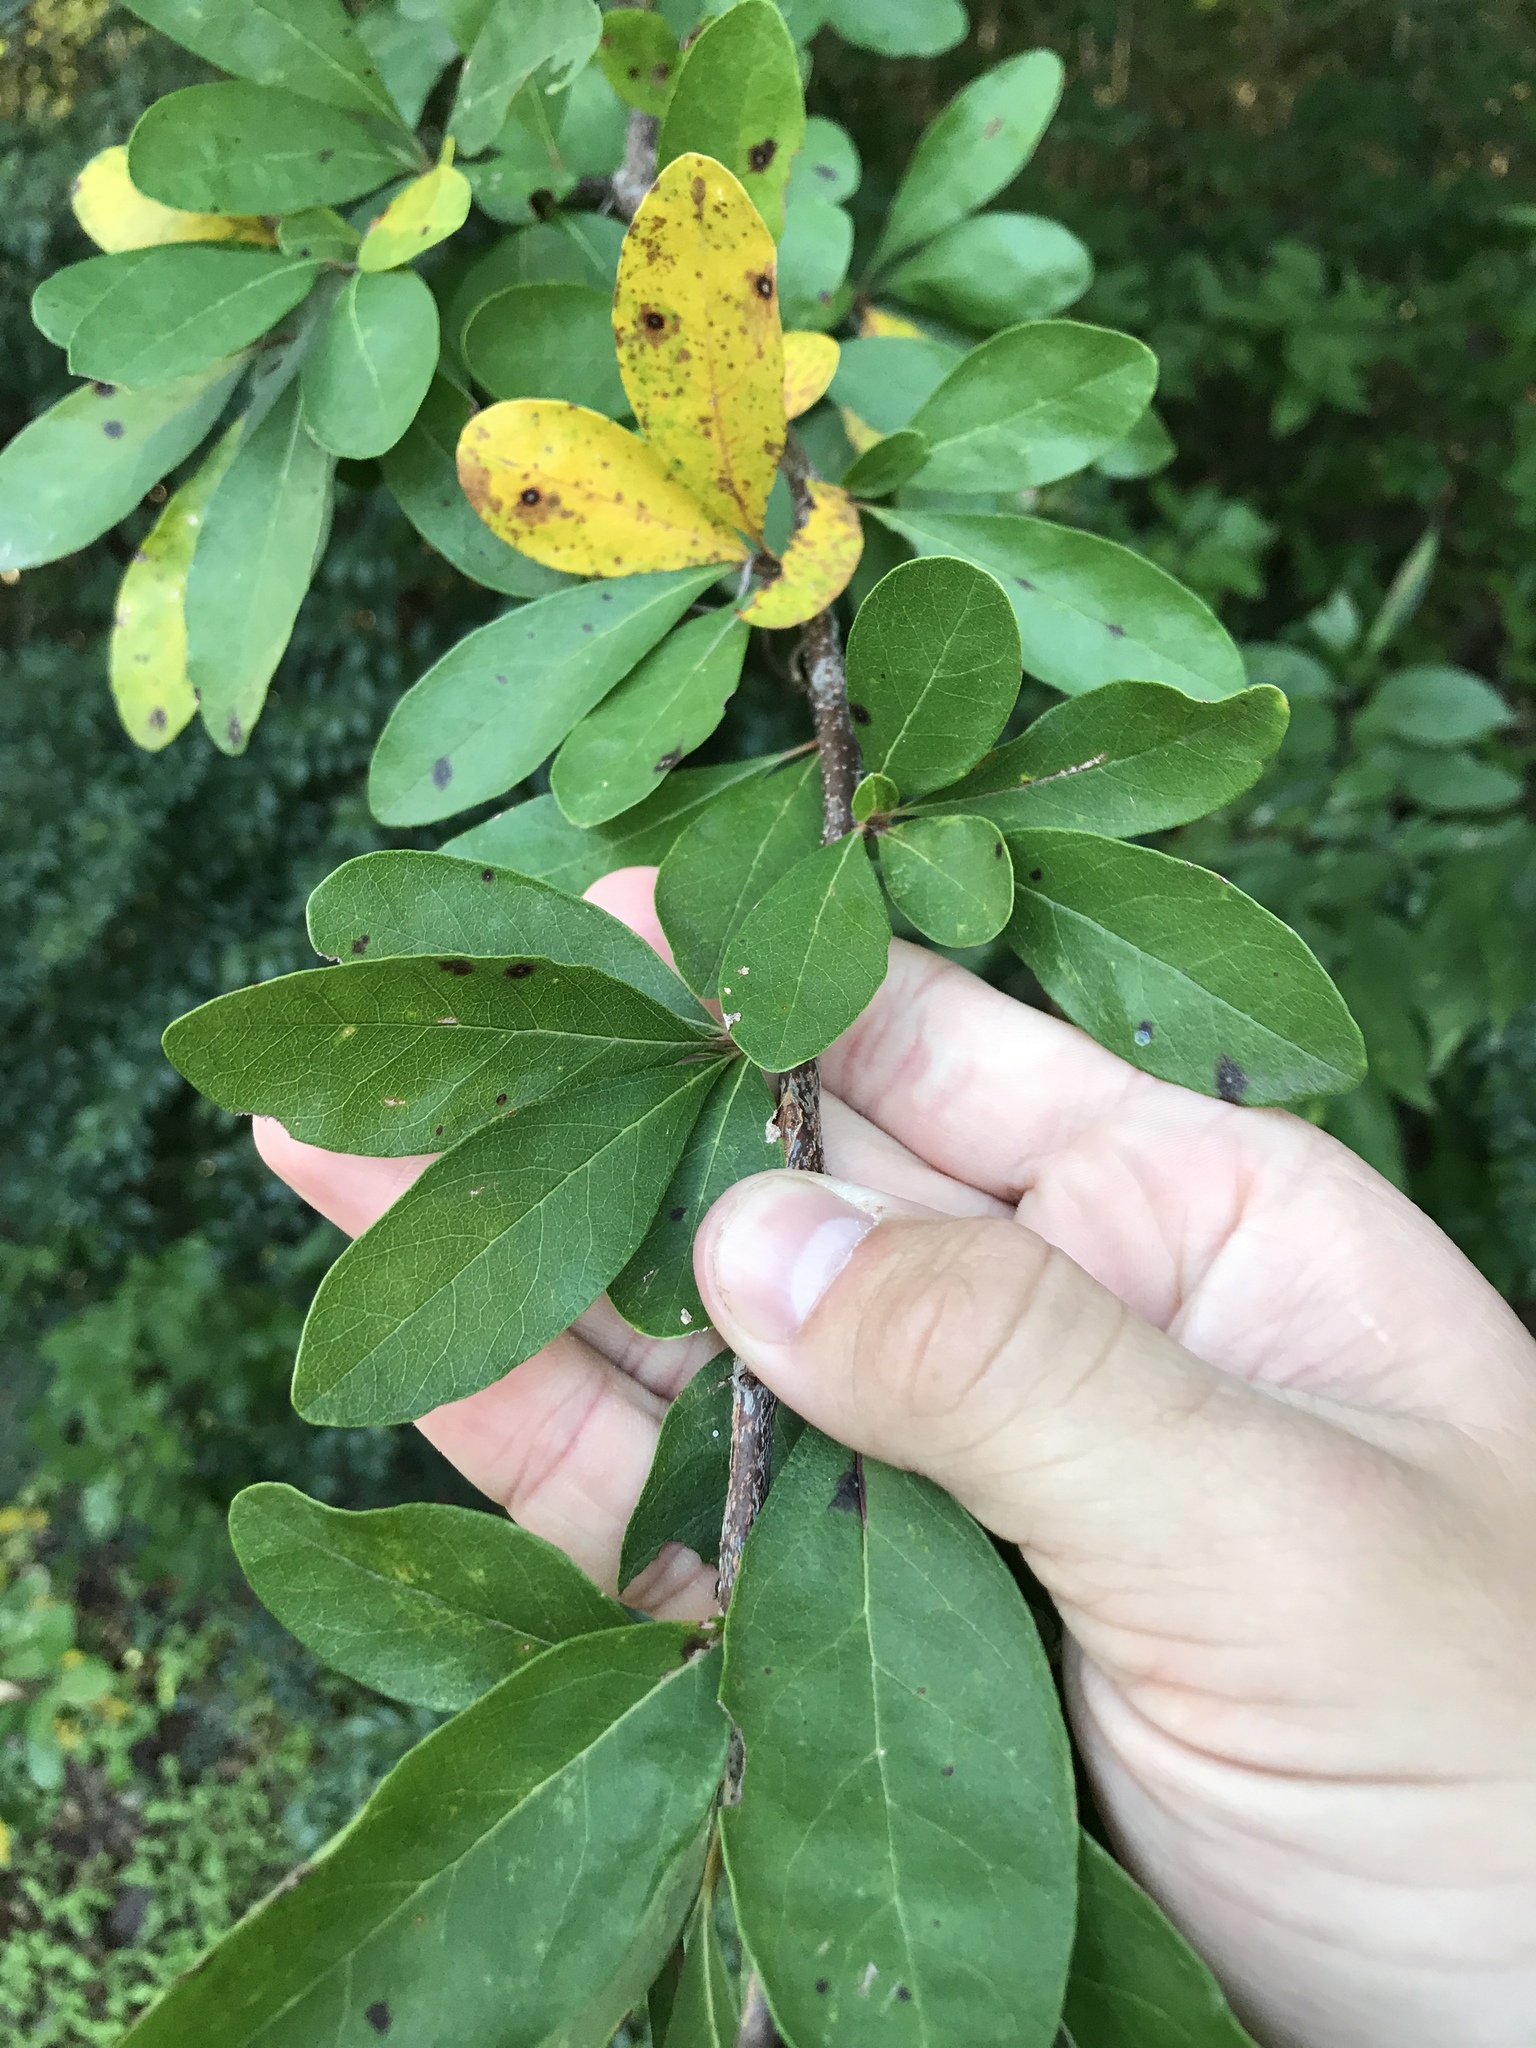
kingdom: Plantae
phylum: Tracheophyta
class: Magnoliopsida
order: Ericales
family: Sapotaceae
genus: Sideroxylon
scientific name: Sideroxylon lanuginosum
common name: Chittamwood
